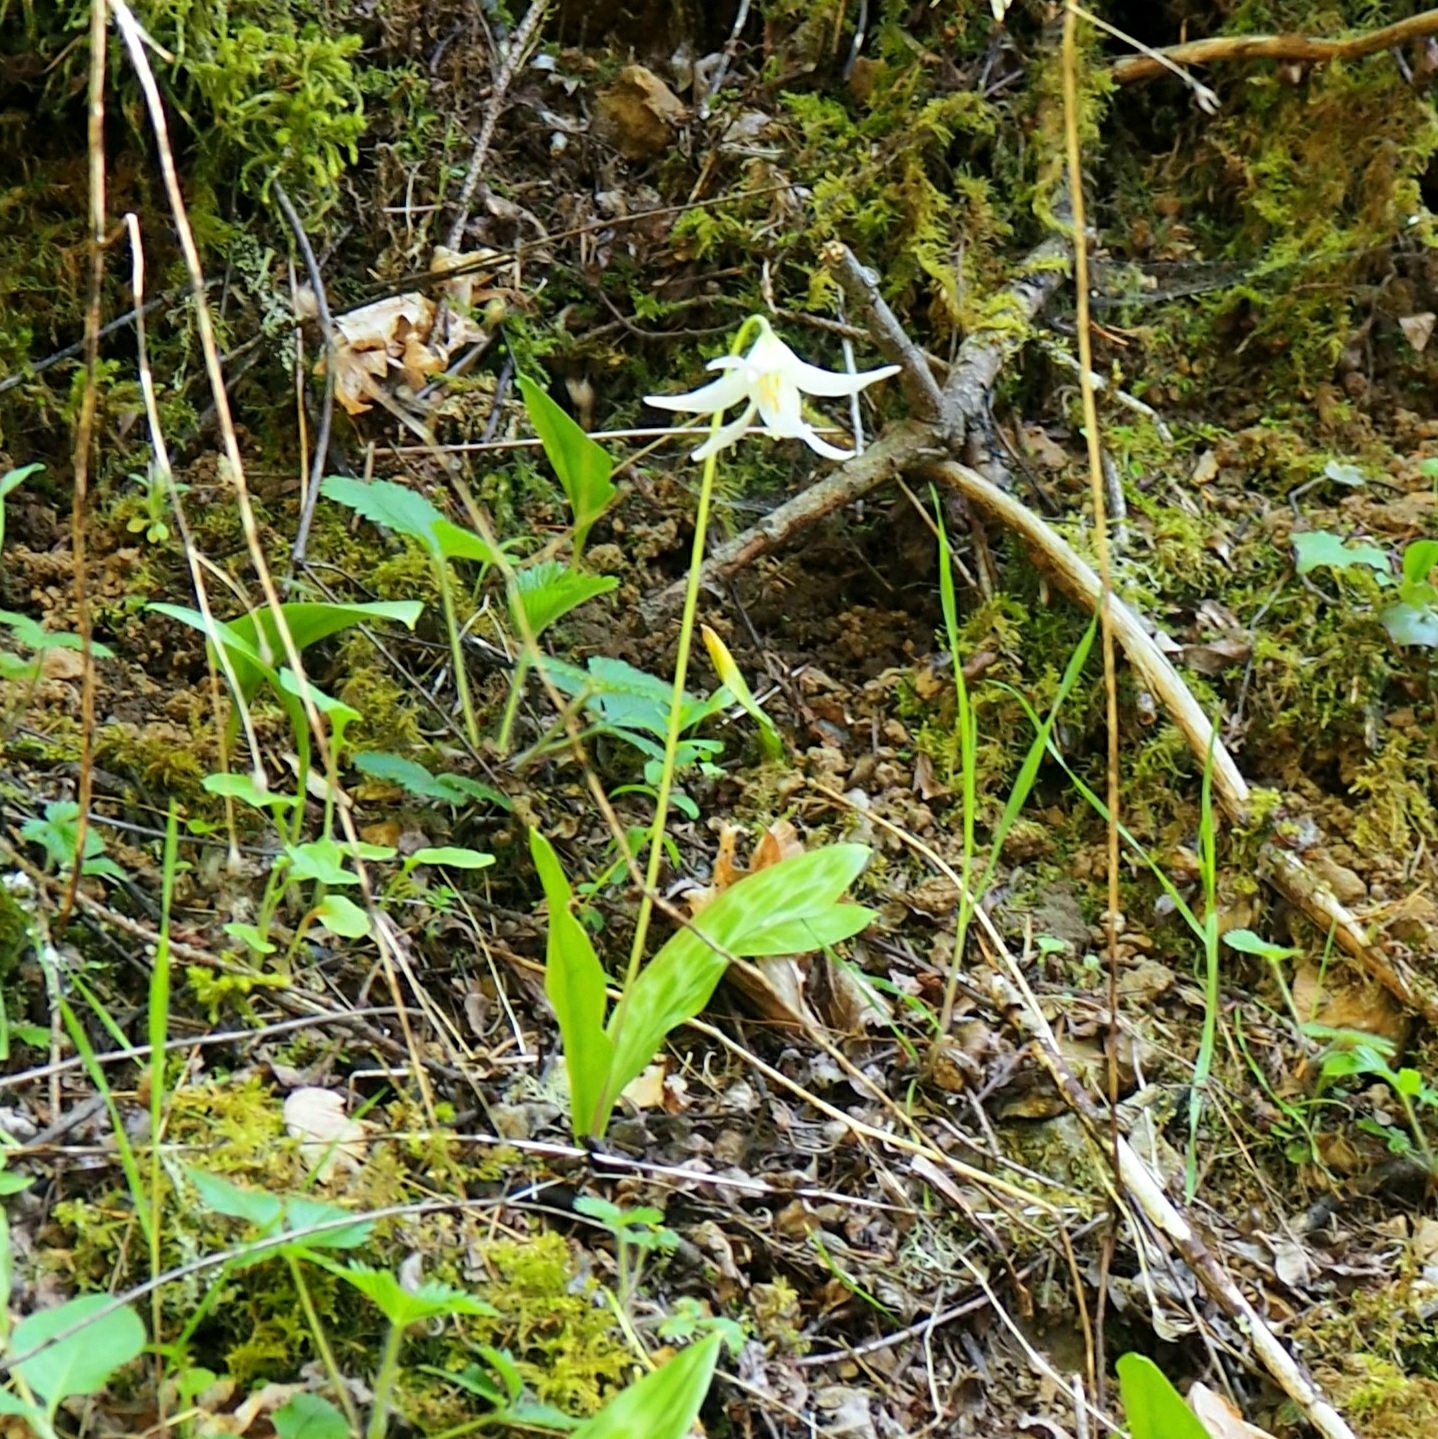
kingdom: Plantae
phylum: Tracheophyta
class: Liliopsida
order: Liliales
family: Liliaceae
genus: Erythronium
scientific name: Erythronium oregonum
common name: Giant adder's-tongue
